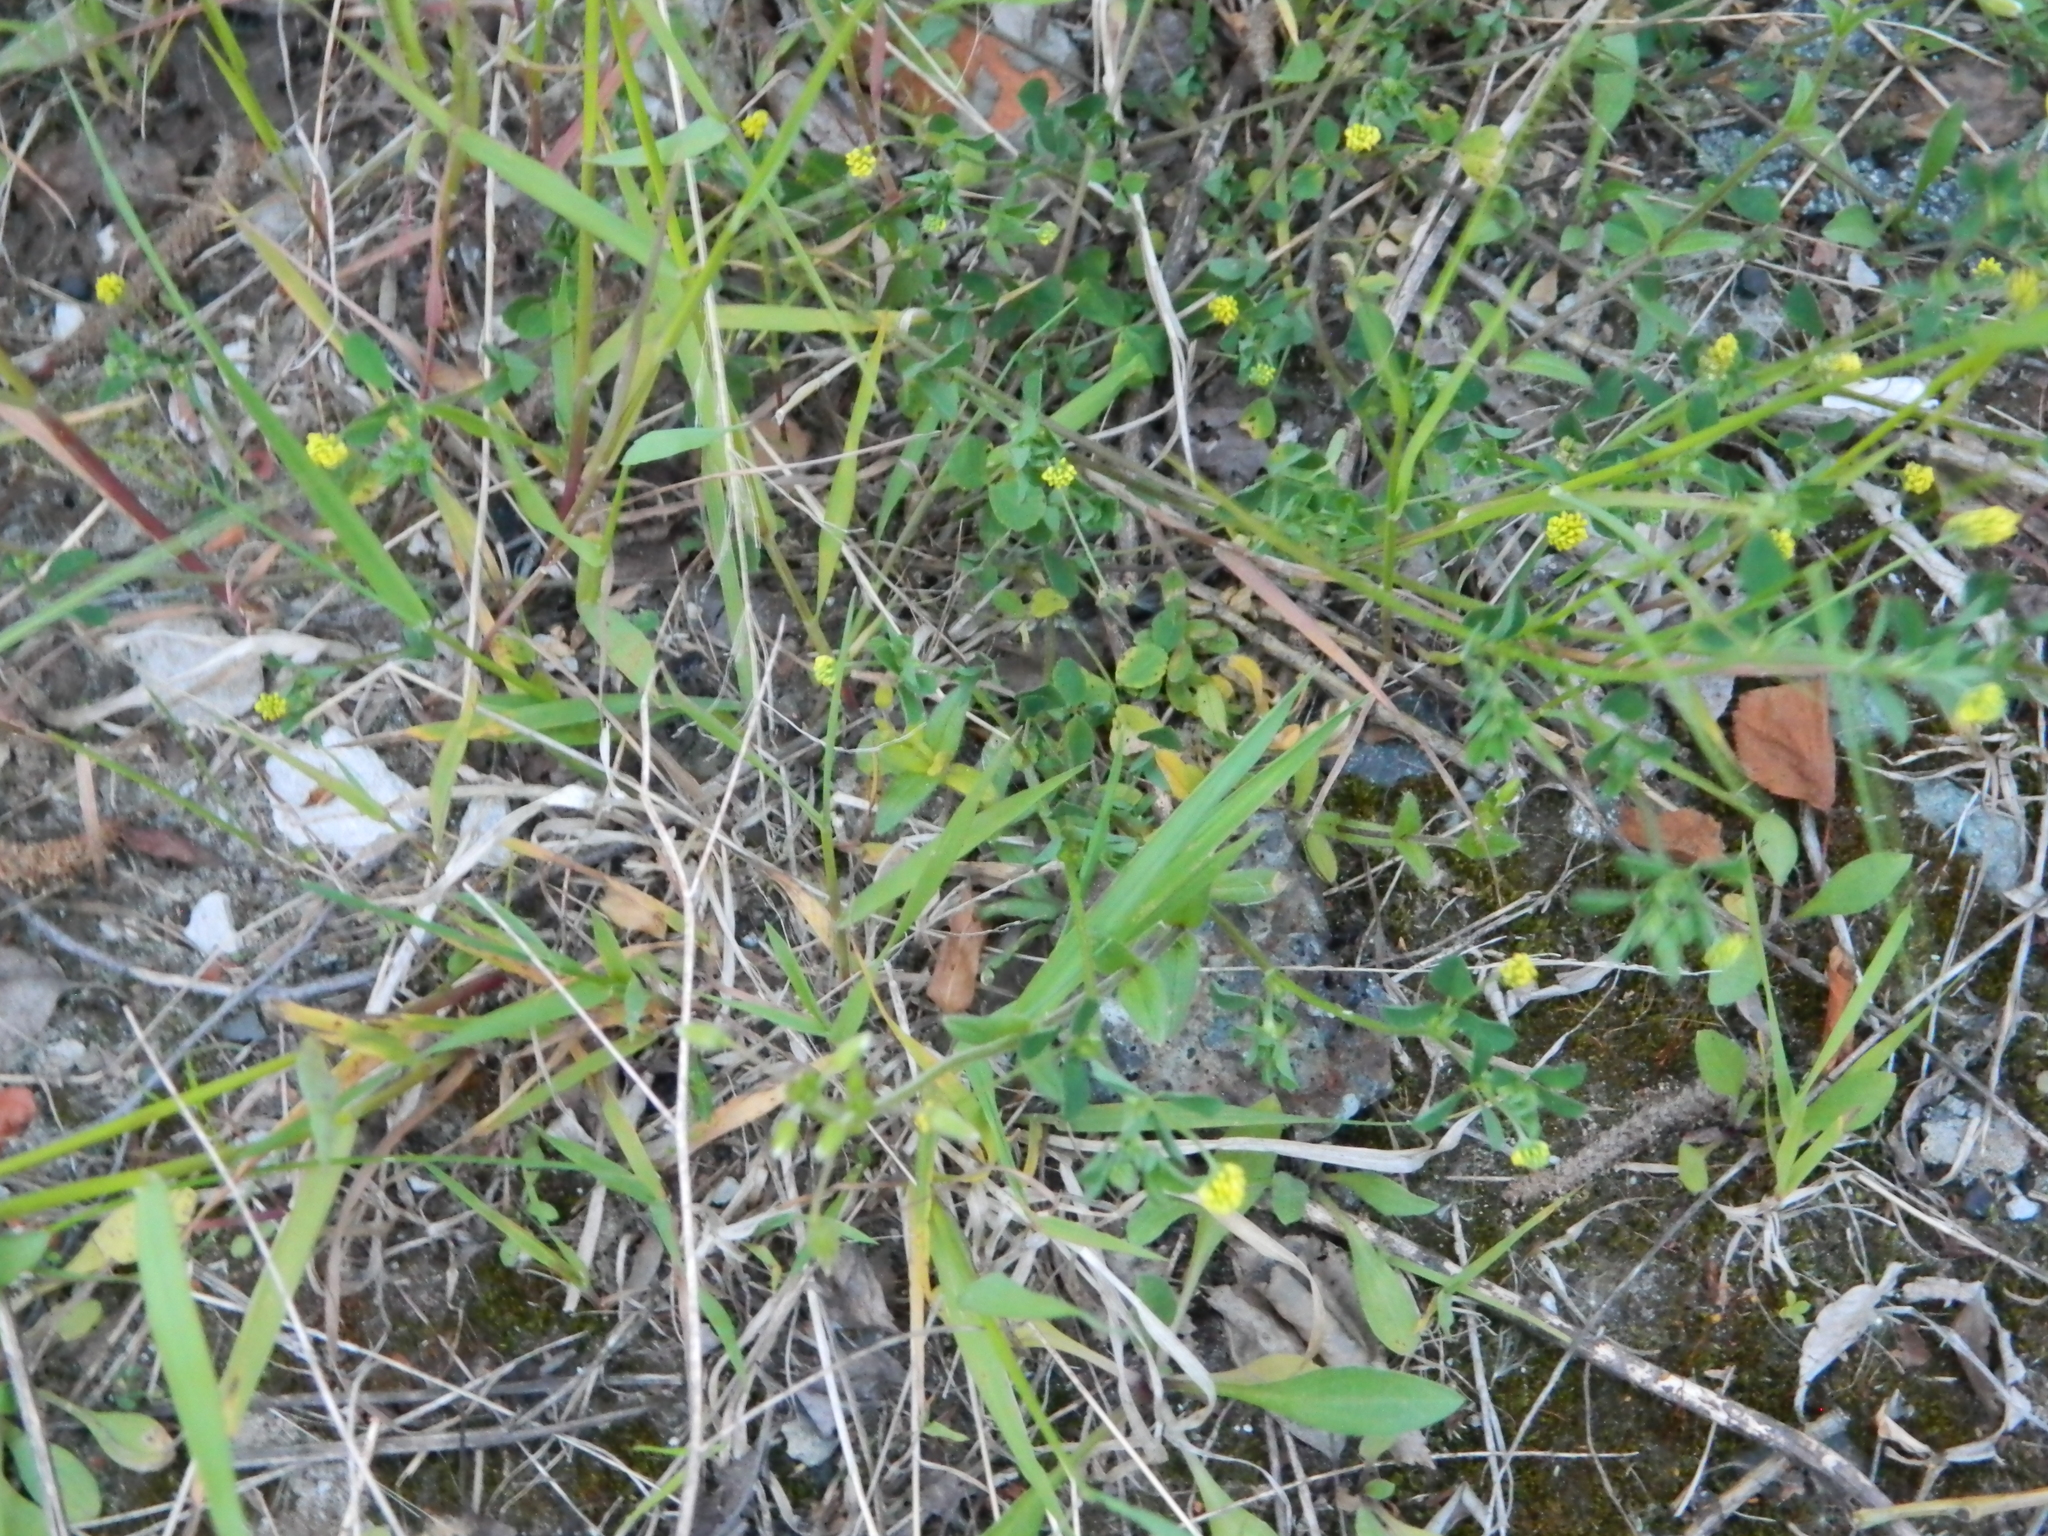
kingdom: Plantae
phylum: Tracheophyta
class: Magnoliopsida
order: Fabales
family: Fabaceae
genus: Medicago
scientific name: Medicago lupulina
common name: Black medick
